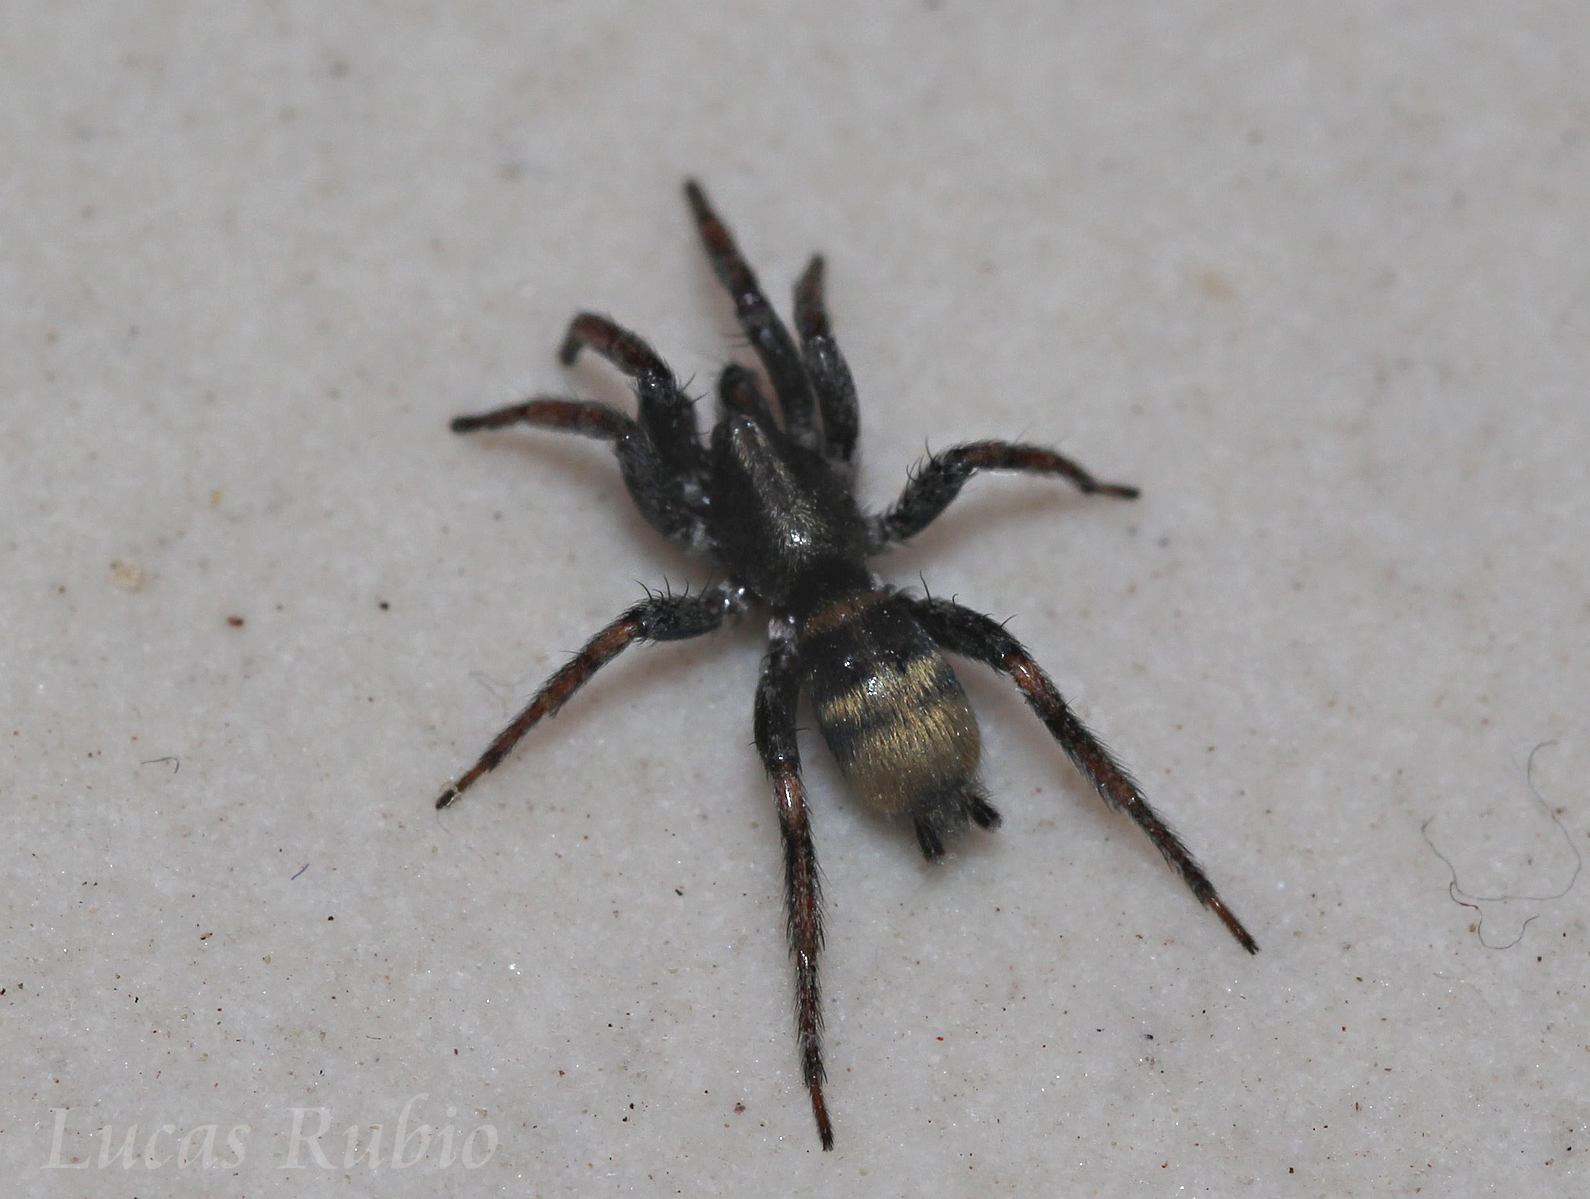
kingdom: Animalia
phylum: Arthropoda
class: Arachnida
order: Araneae
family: Gnaphosidae
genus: Latonigena
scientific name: Latonigena auricomis
